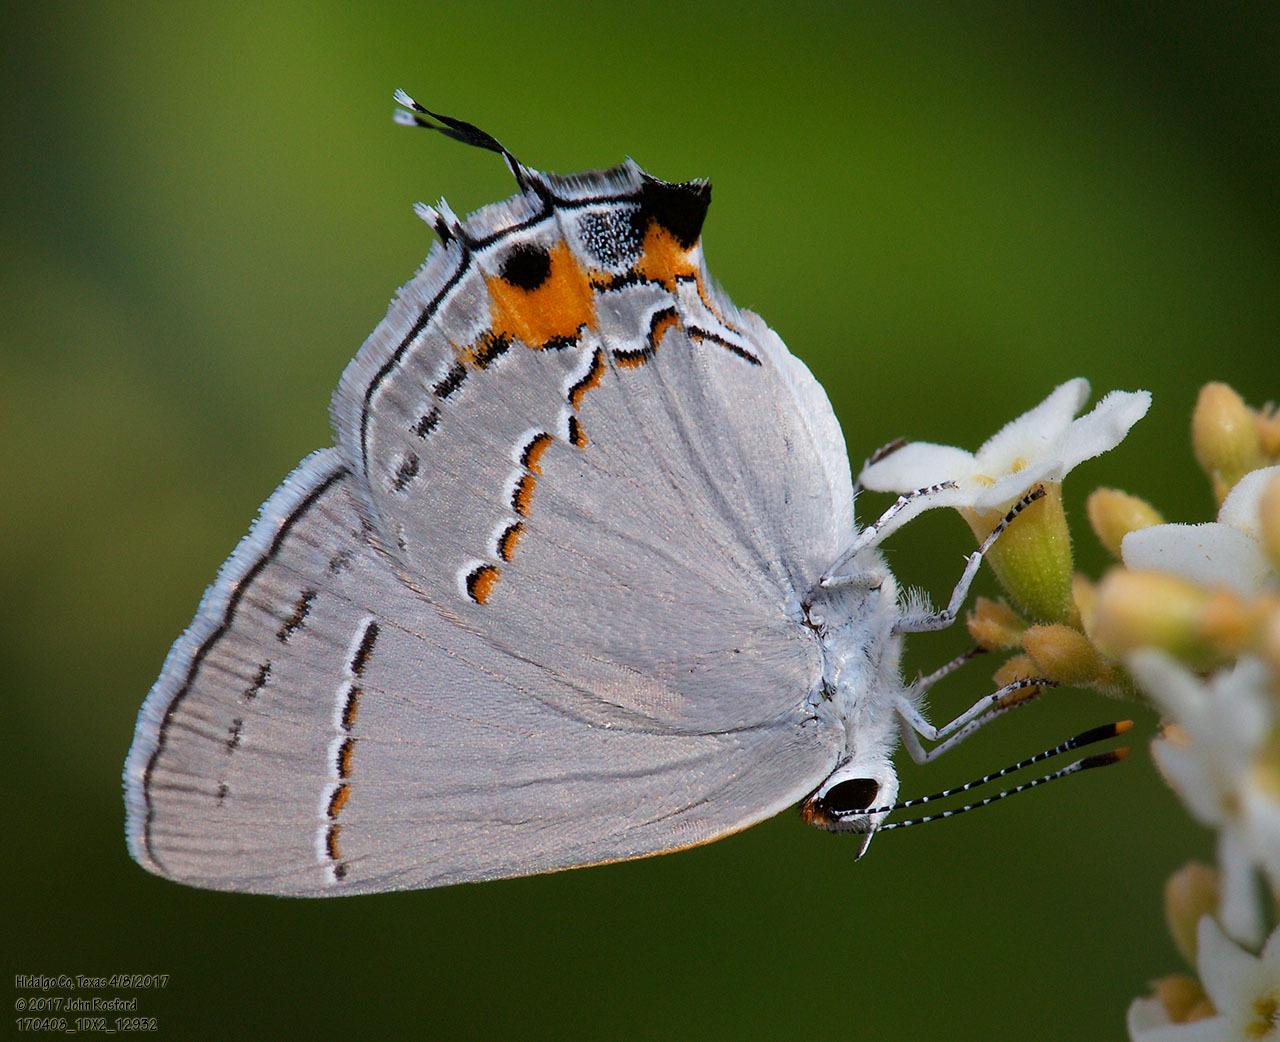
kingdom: Animalia
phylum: Arthropoda
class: Insecta
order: Lepidoptera
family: Lycaenidae
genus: Strymon
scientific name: Strymon melinus
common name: Gray hairstreak
